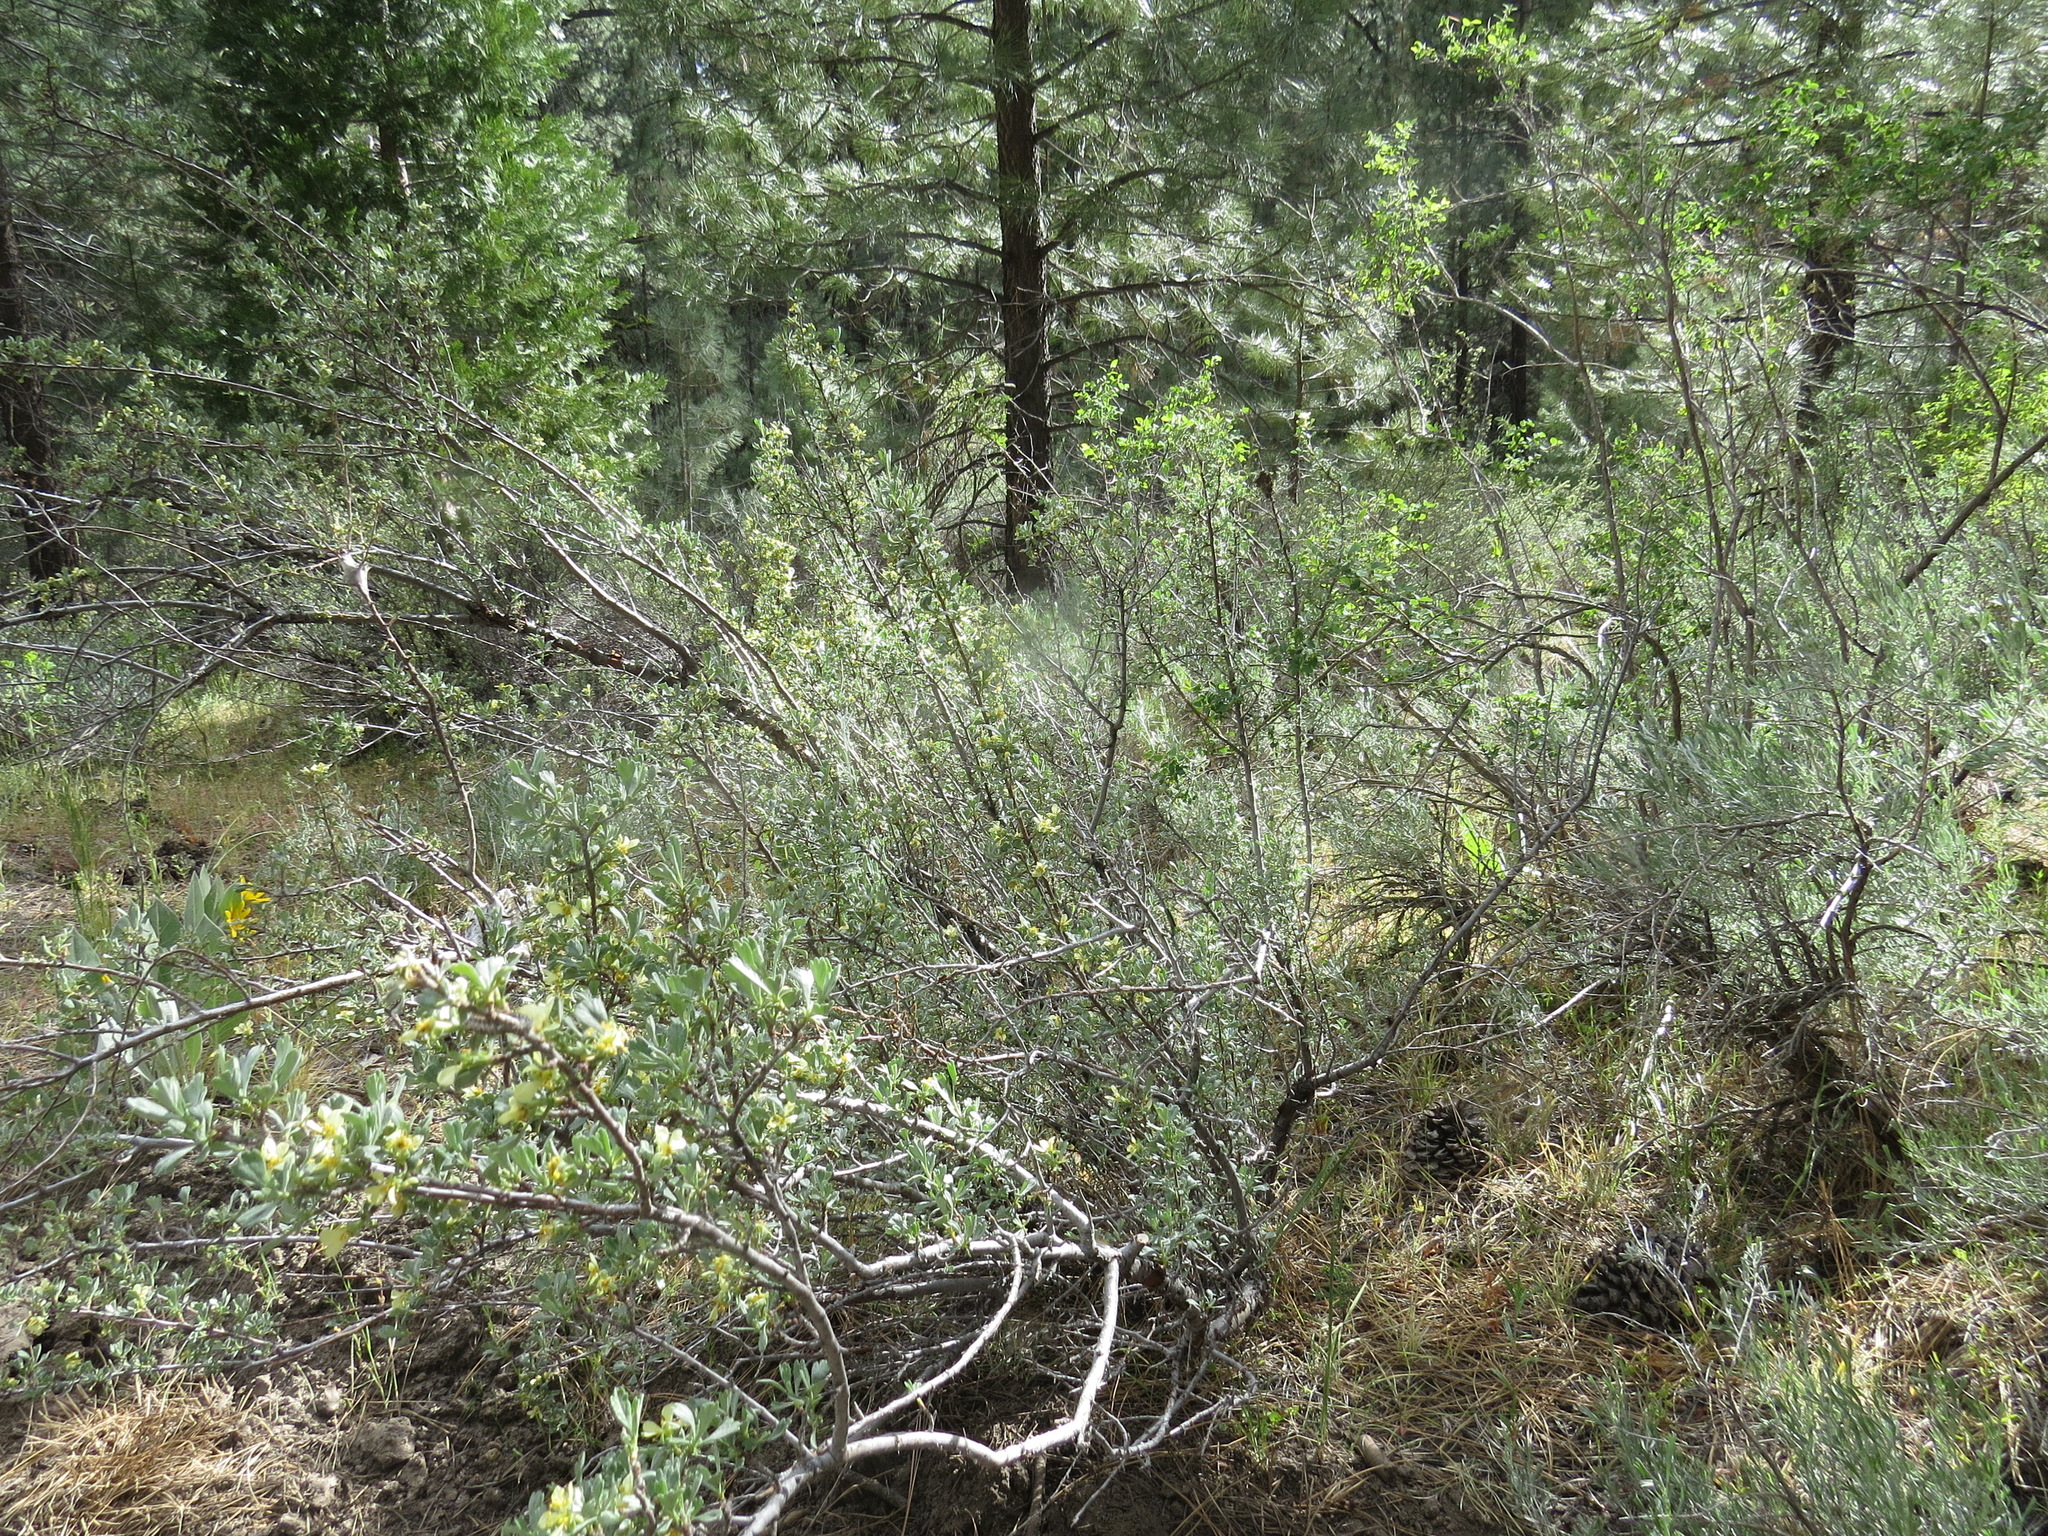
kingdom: Plantae
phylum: Tracheophyta
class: Magnoliopsida
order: Rosales
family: Rosaceae
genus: Purshia
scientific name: Purshia tridentata
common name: Antelope bitterbrush
